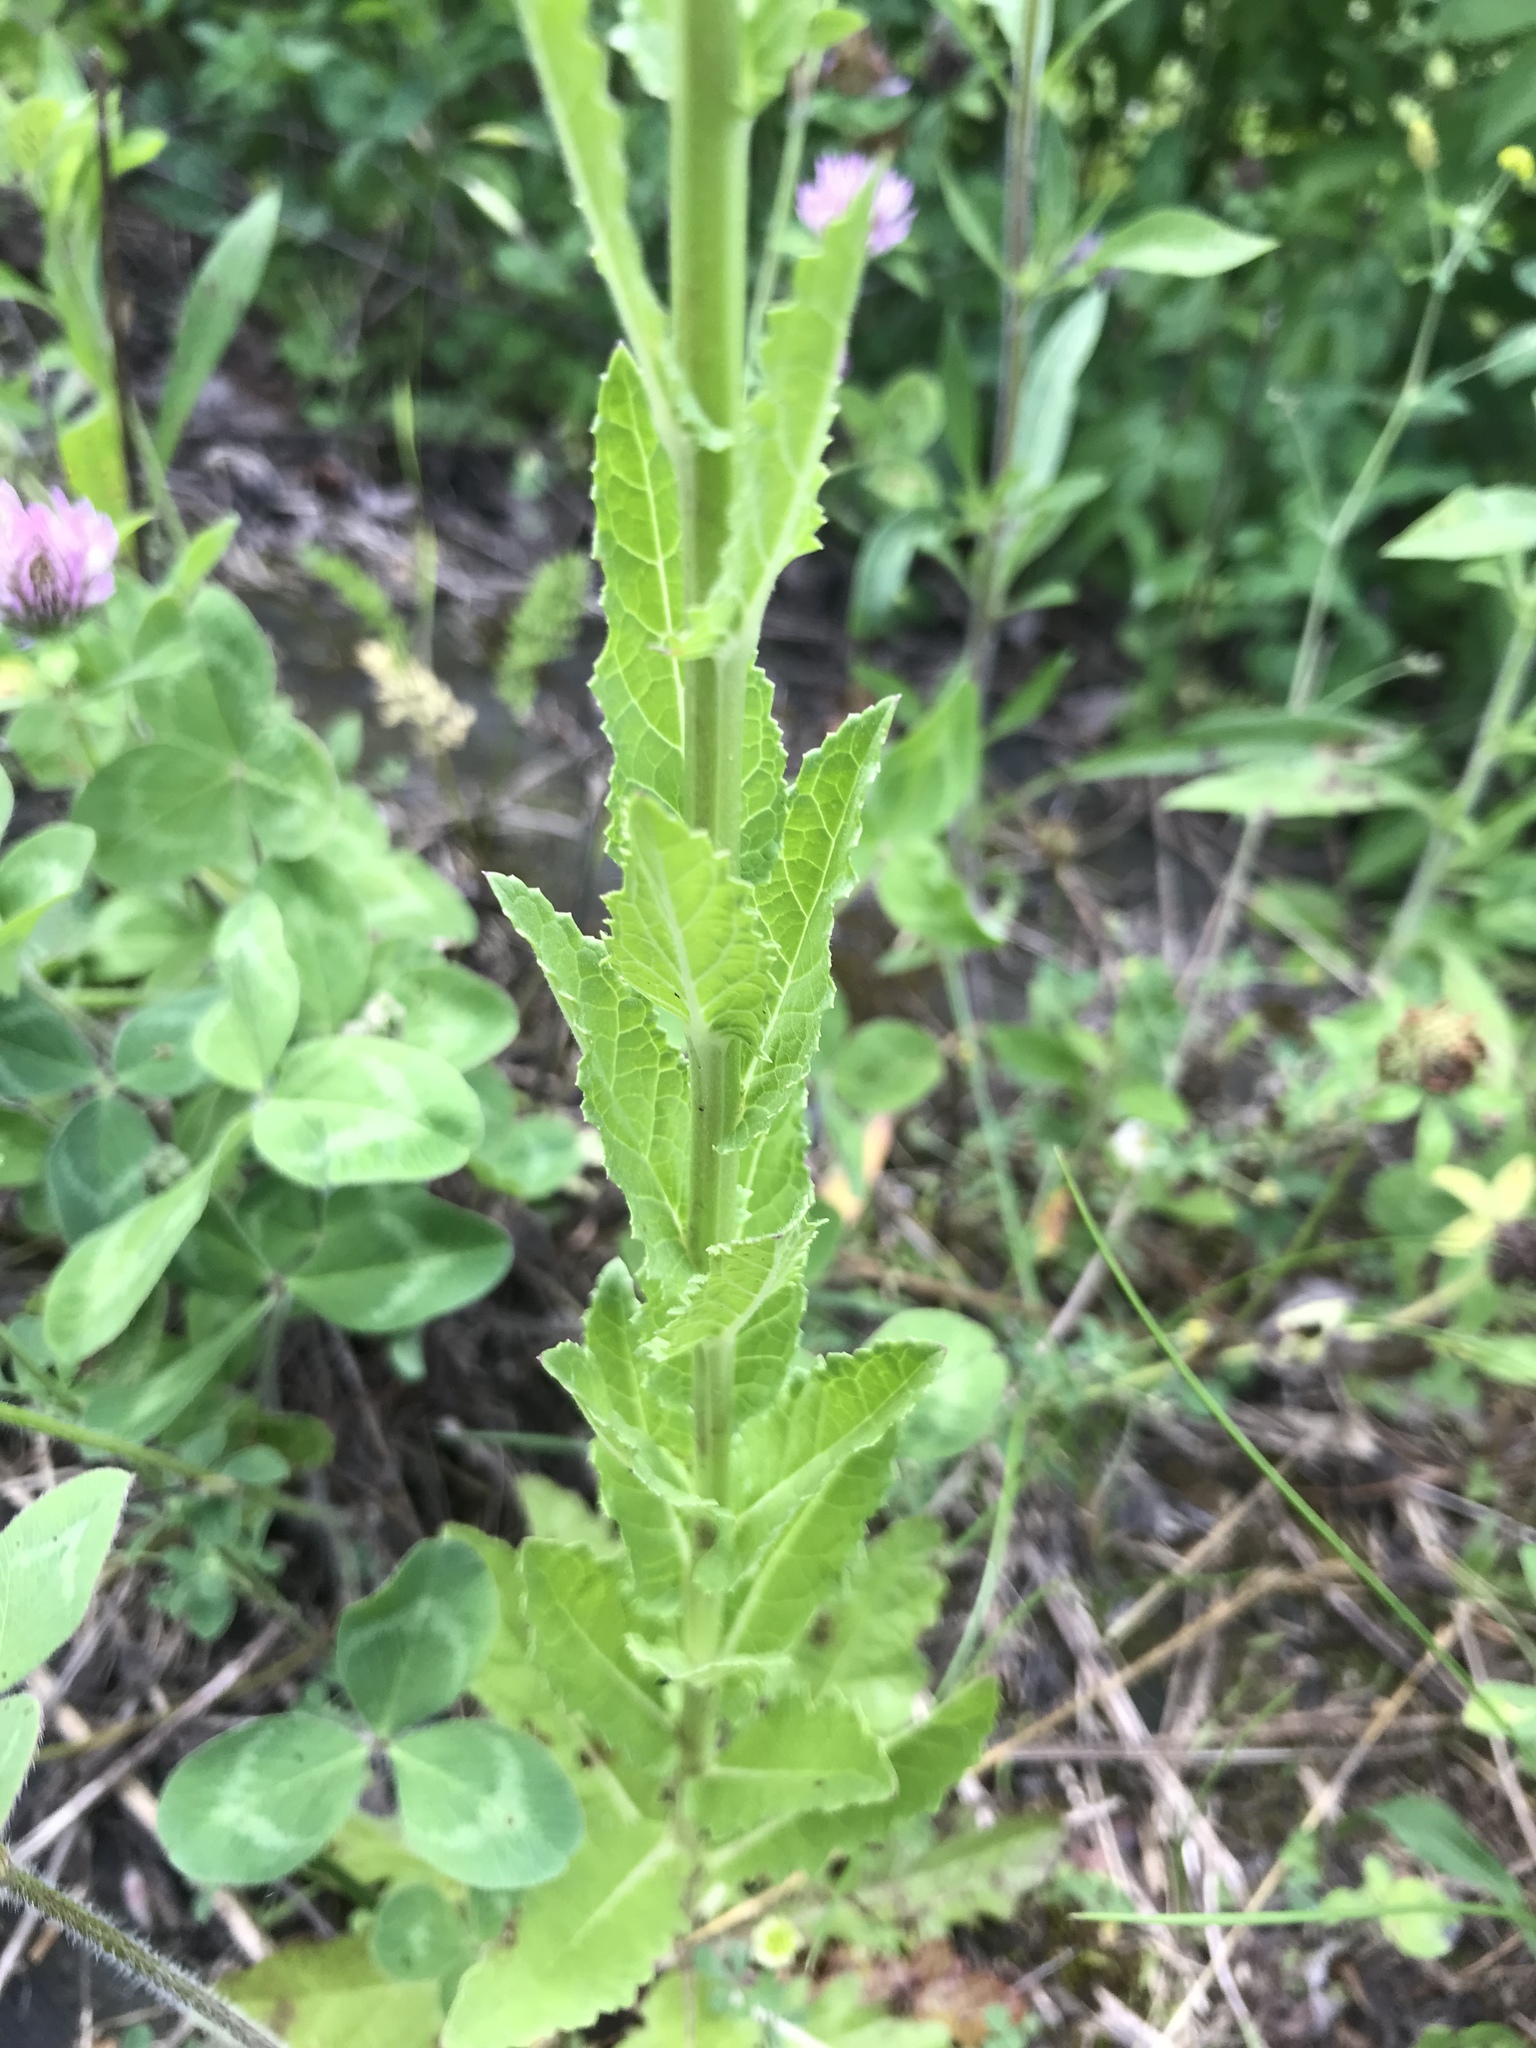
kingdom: Plantae
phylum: Tracheophyta
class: Magnoliopsida
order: Lamiales
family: Scrophulariaceae
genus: Verbascum
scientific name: Verbascum blattaria
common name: Moth mullein
